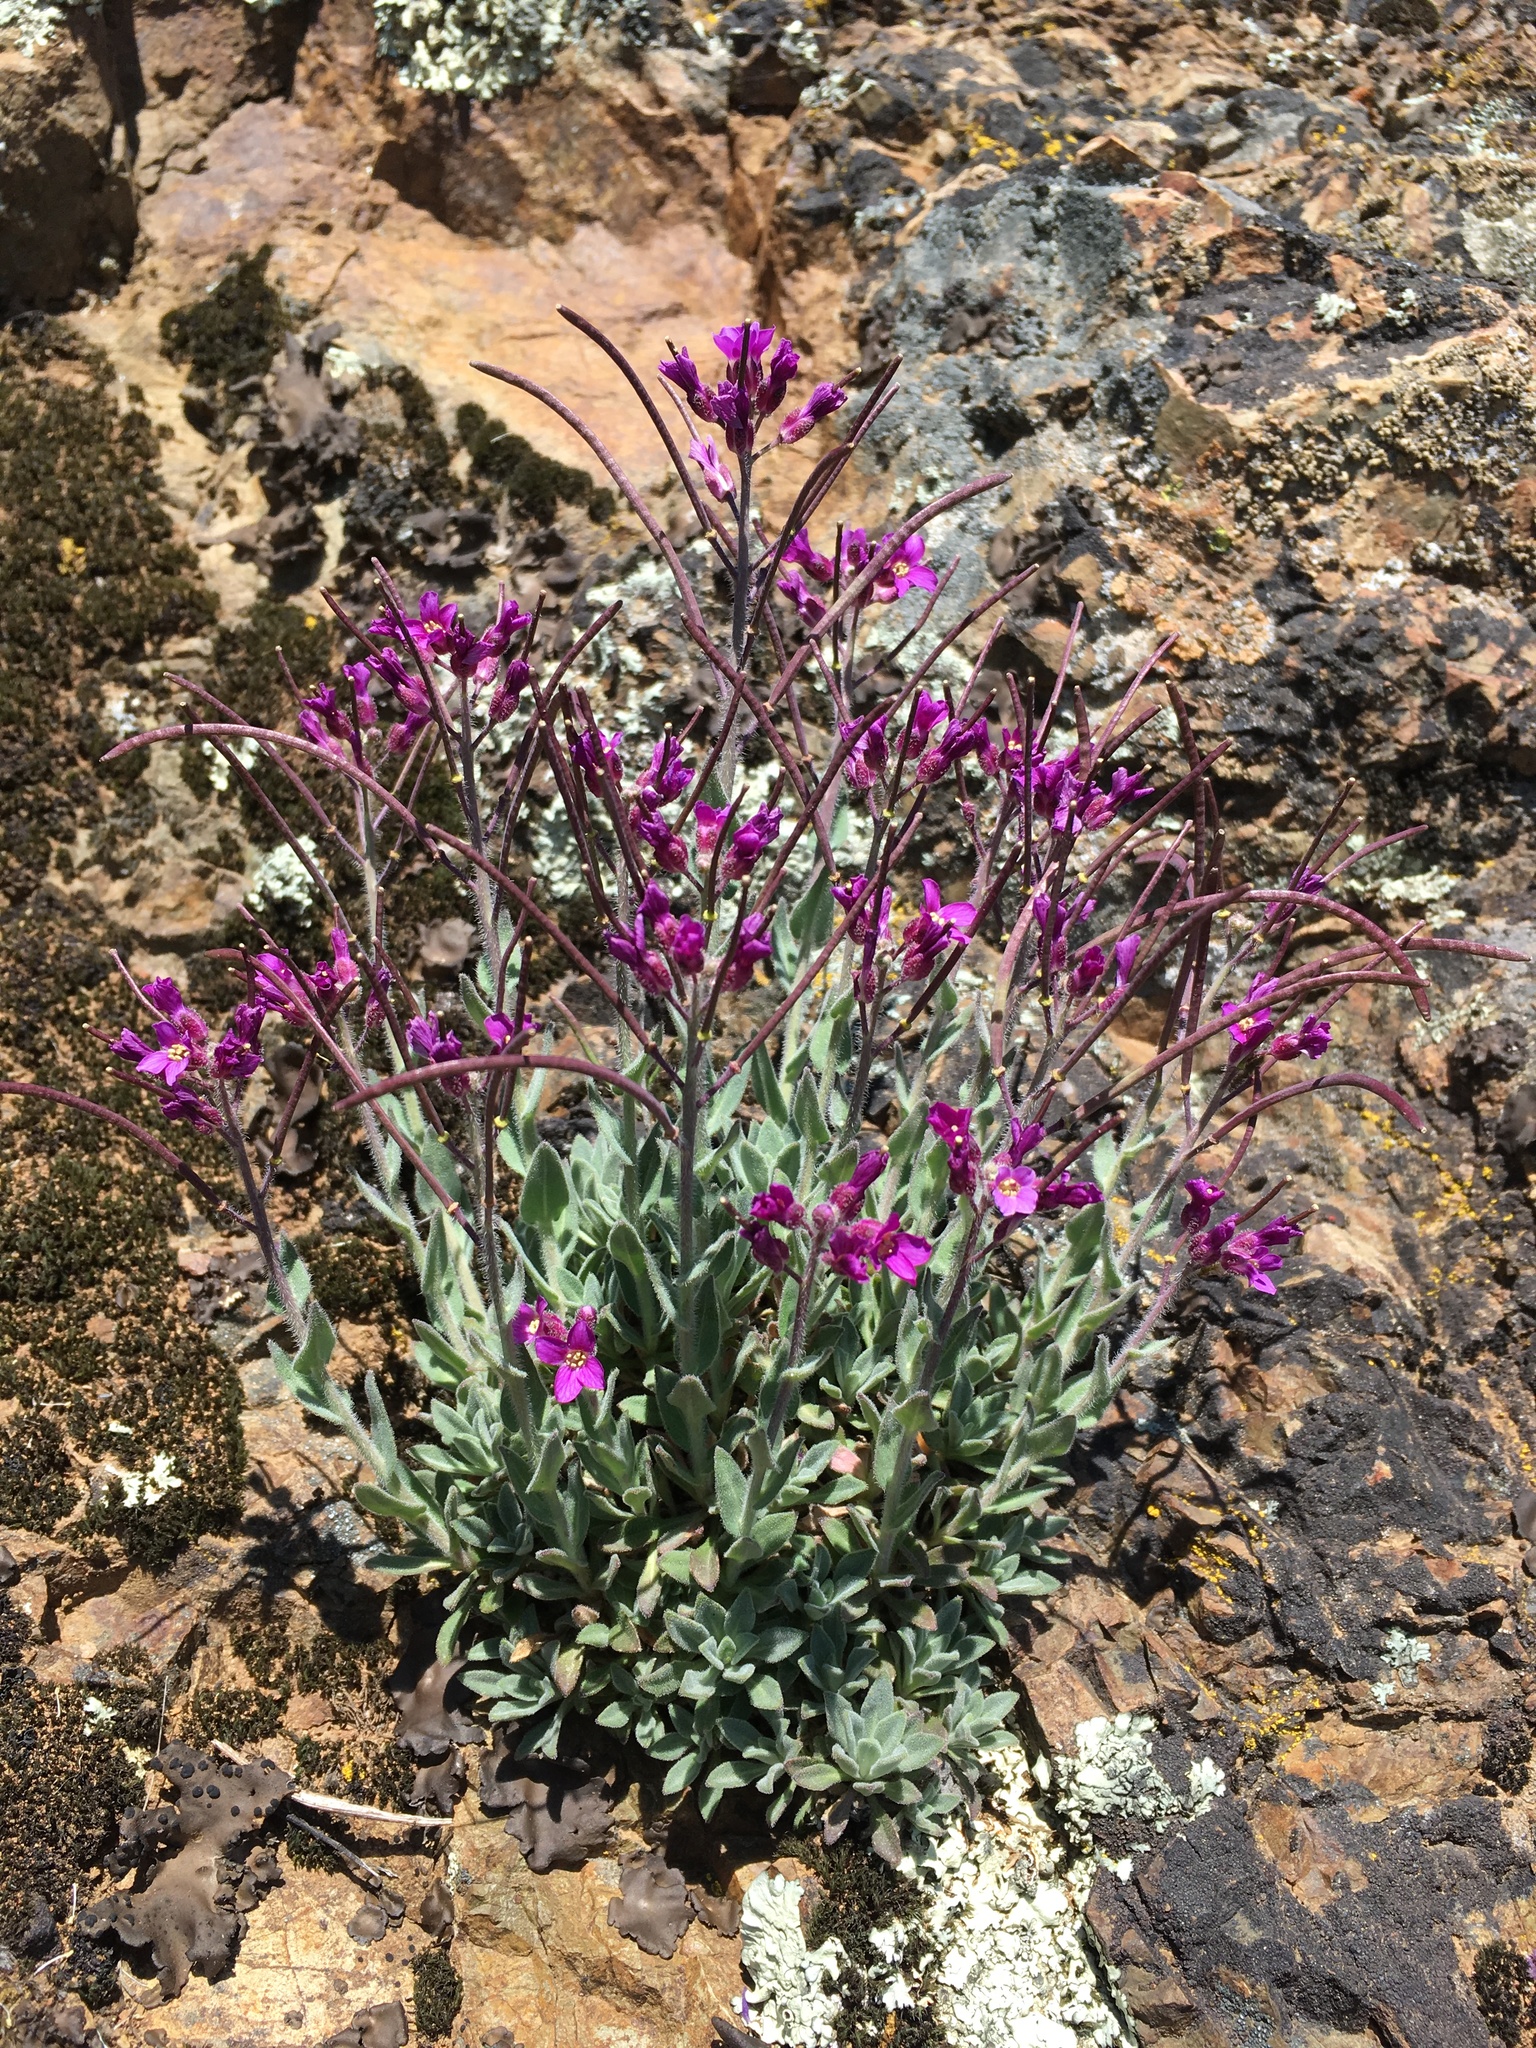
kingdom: Plantae
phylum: Tracheophyta
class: Magnoliopsida
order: Brassicales
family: Brassicaceae
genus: Boechera
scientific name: Boechera breweri
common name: Brewer's rockcress
